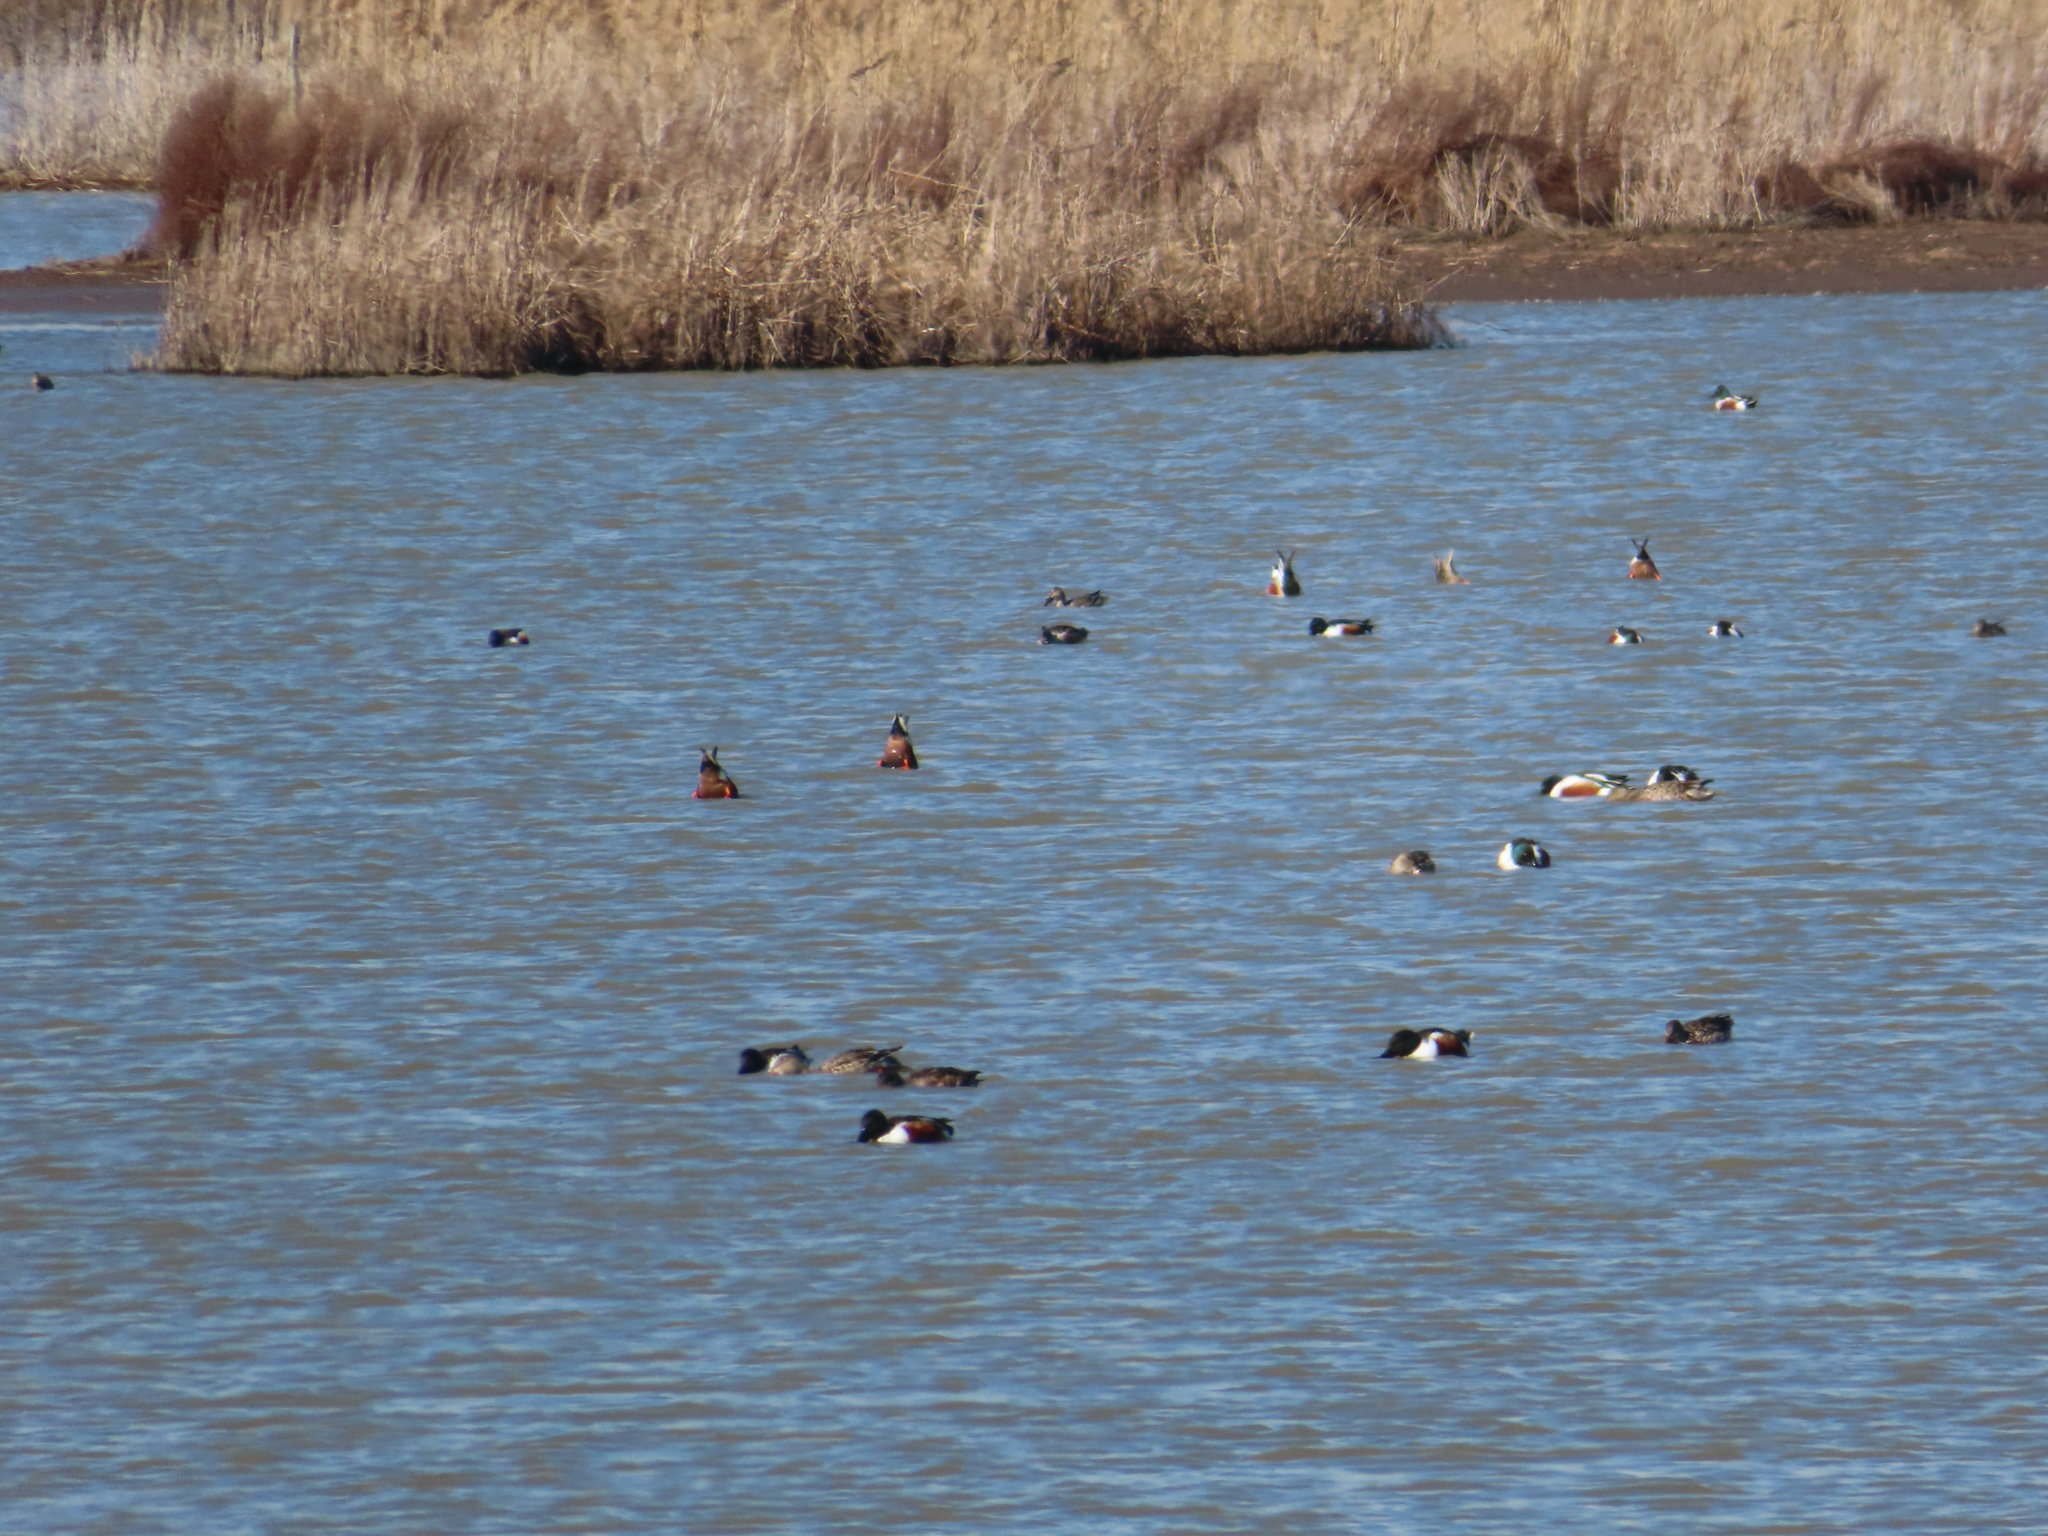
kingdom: Animalia
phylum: Chordata
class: Aves
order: Anseriformes
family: Anatidae
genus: Spatula
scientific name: Spatula clypeata
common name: Northern shoveler
